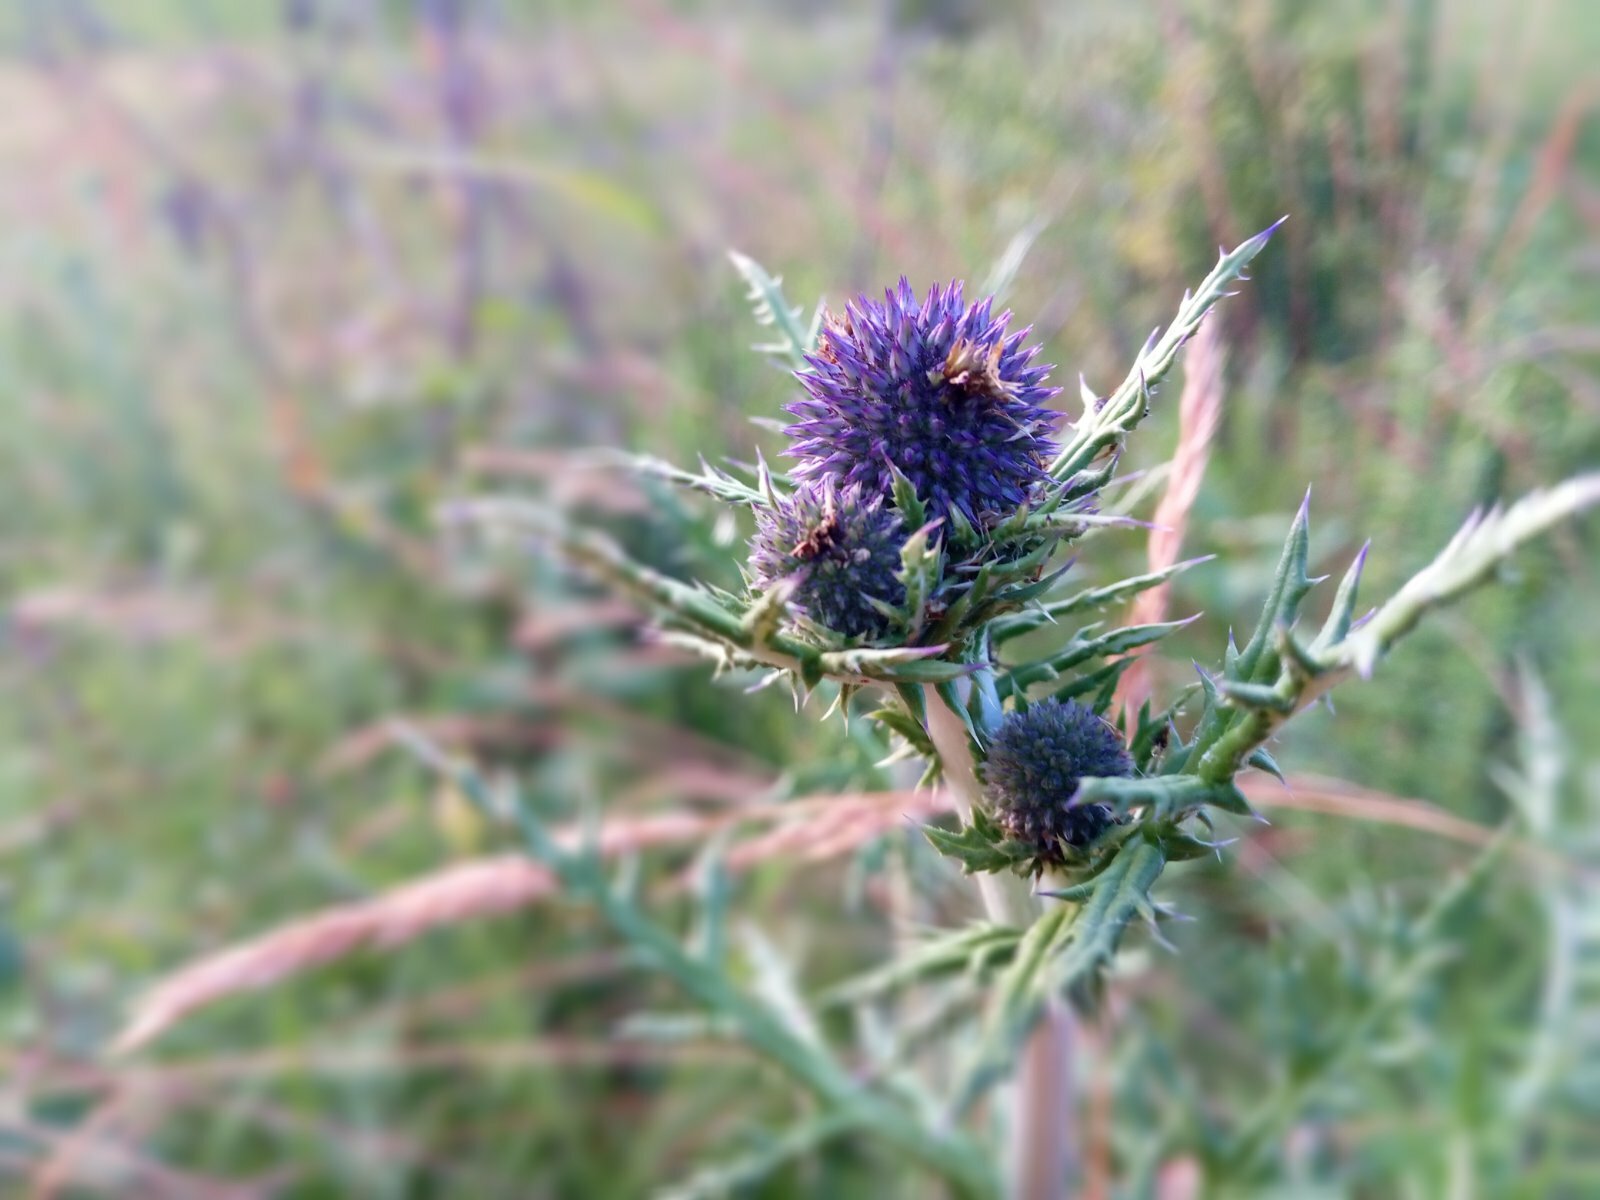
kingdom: Plantae
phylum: Tracheophyta
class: Magnoliopsida
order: Asterales
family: Asteraceae
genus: Echinops
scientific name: Echinops ritro
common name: Globe thistle
